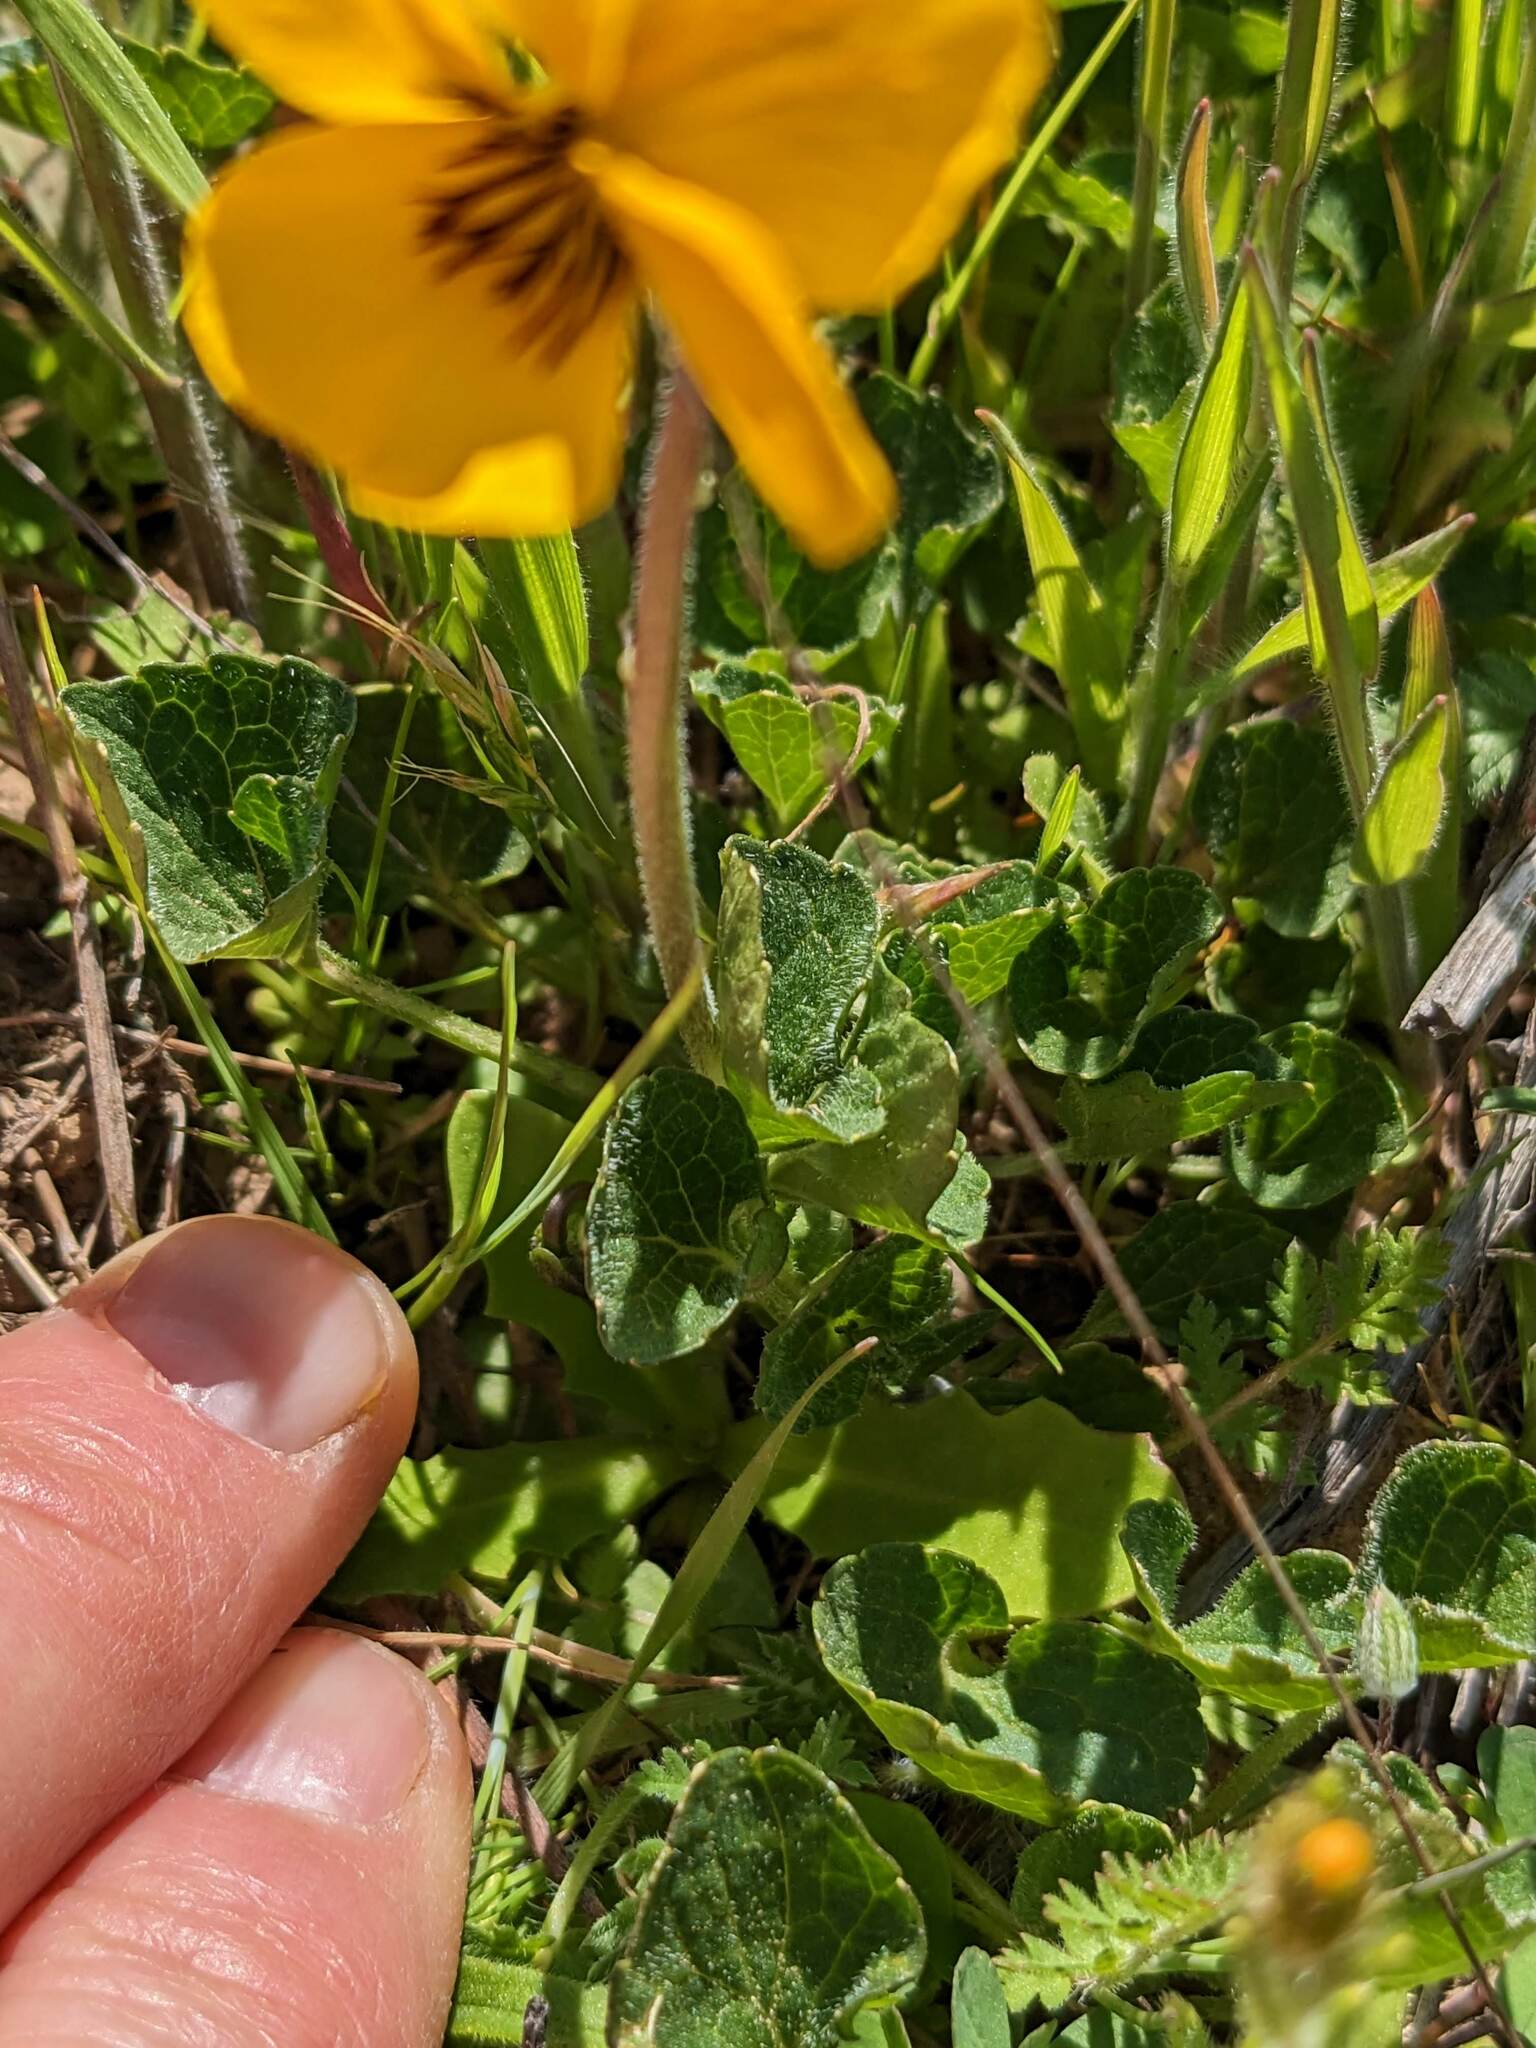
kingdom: Plantae
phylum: Tracheophyta
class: Magnoliopsida
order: Malpighiales
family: Violaceae
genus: Viola
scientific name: Viola pedunculata
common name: California golden violet
